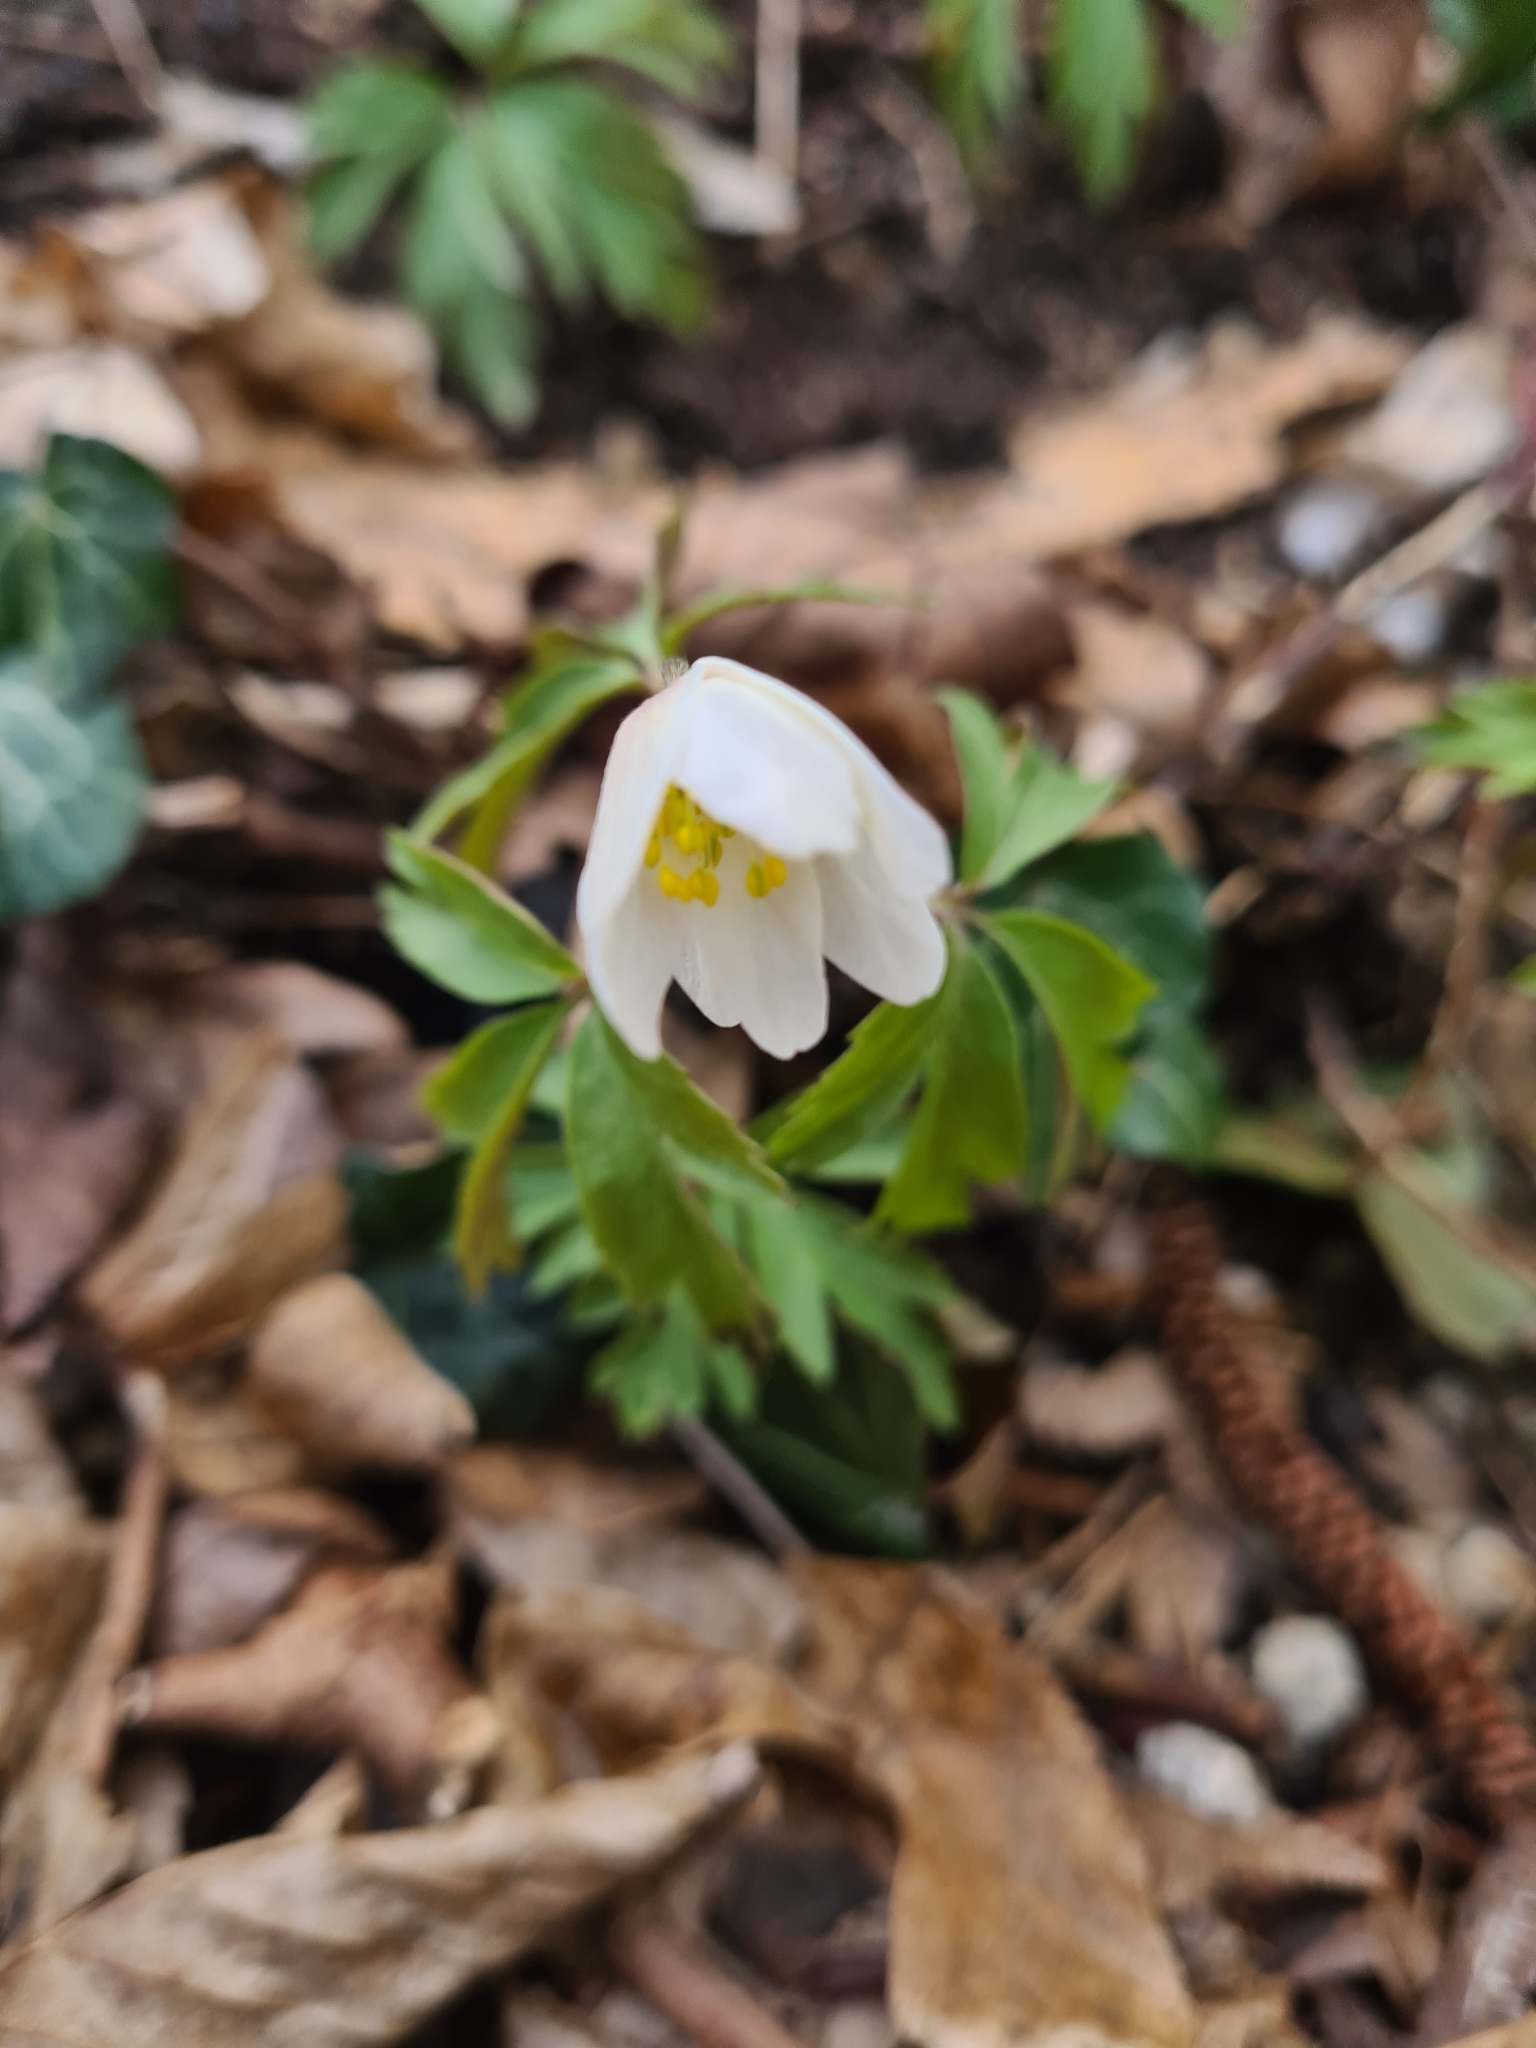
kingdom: Plantae
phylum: Tracheophyta
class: Magnoliopsida
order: Ranunculales
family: Ranunculaceae
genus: Anemone
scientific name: Anemone nemorosa
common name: Wood anemone
